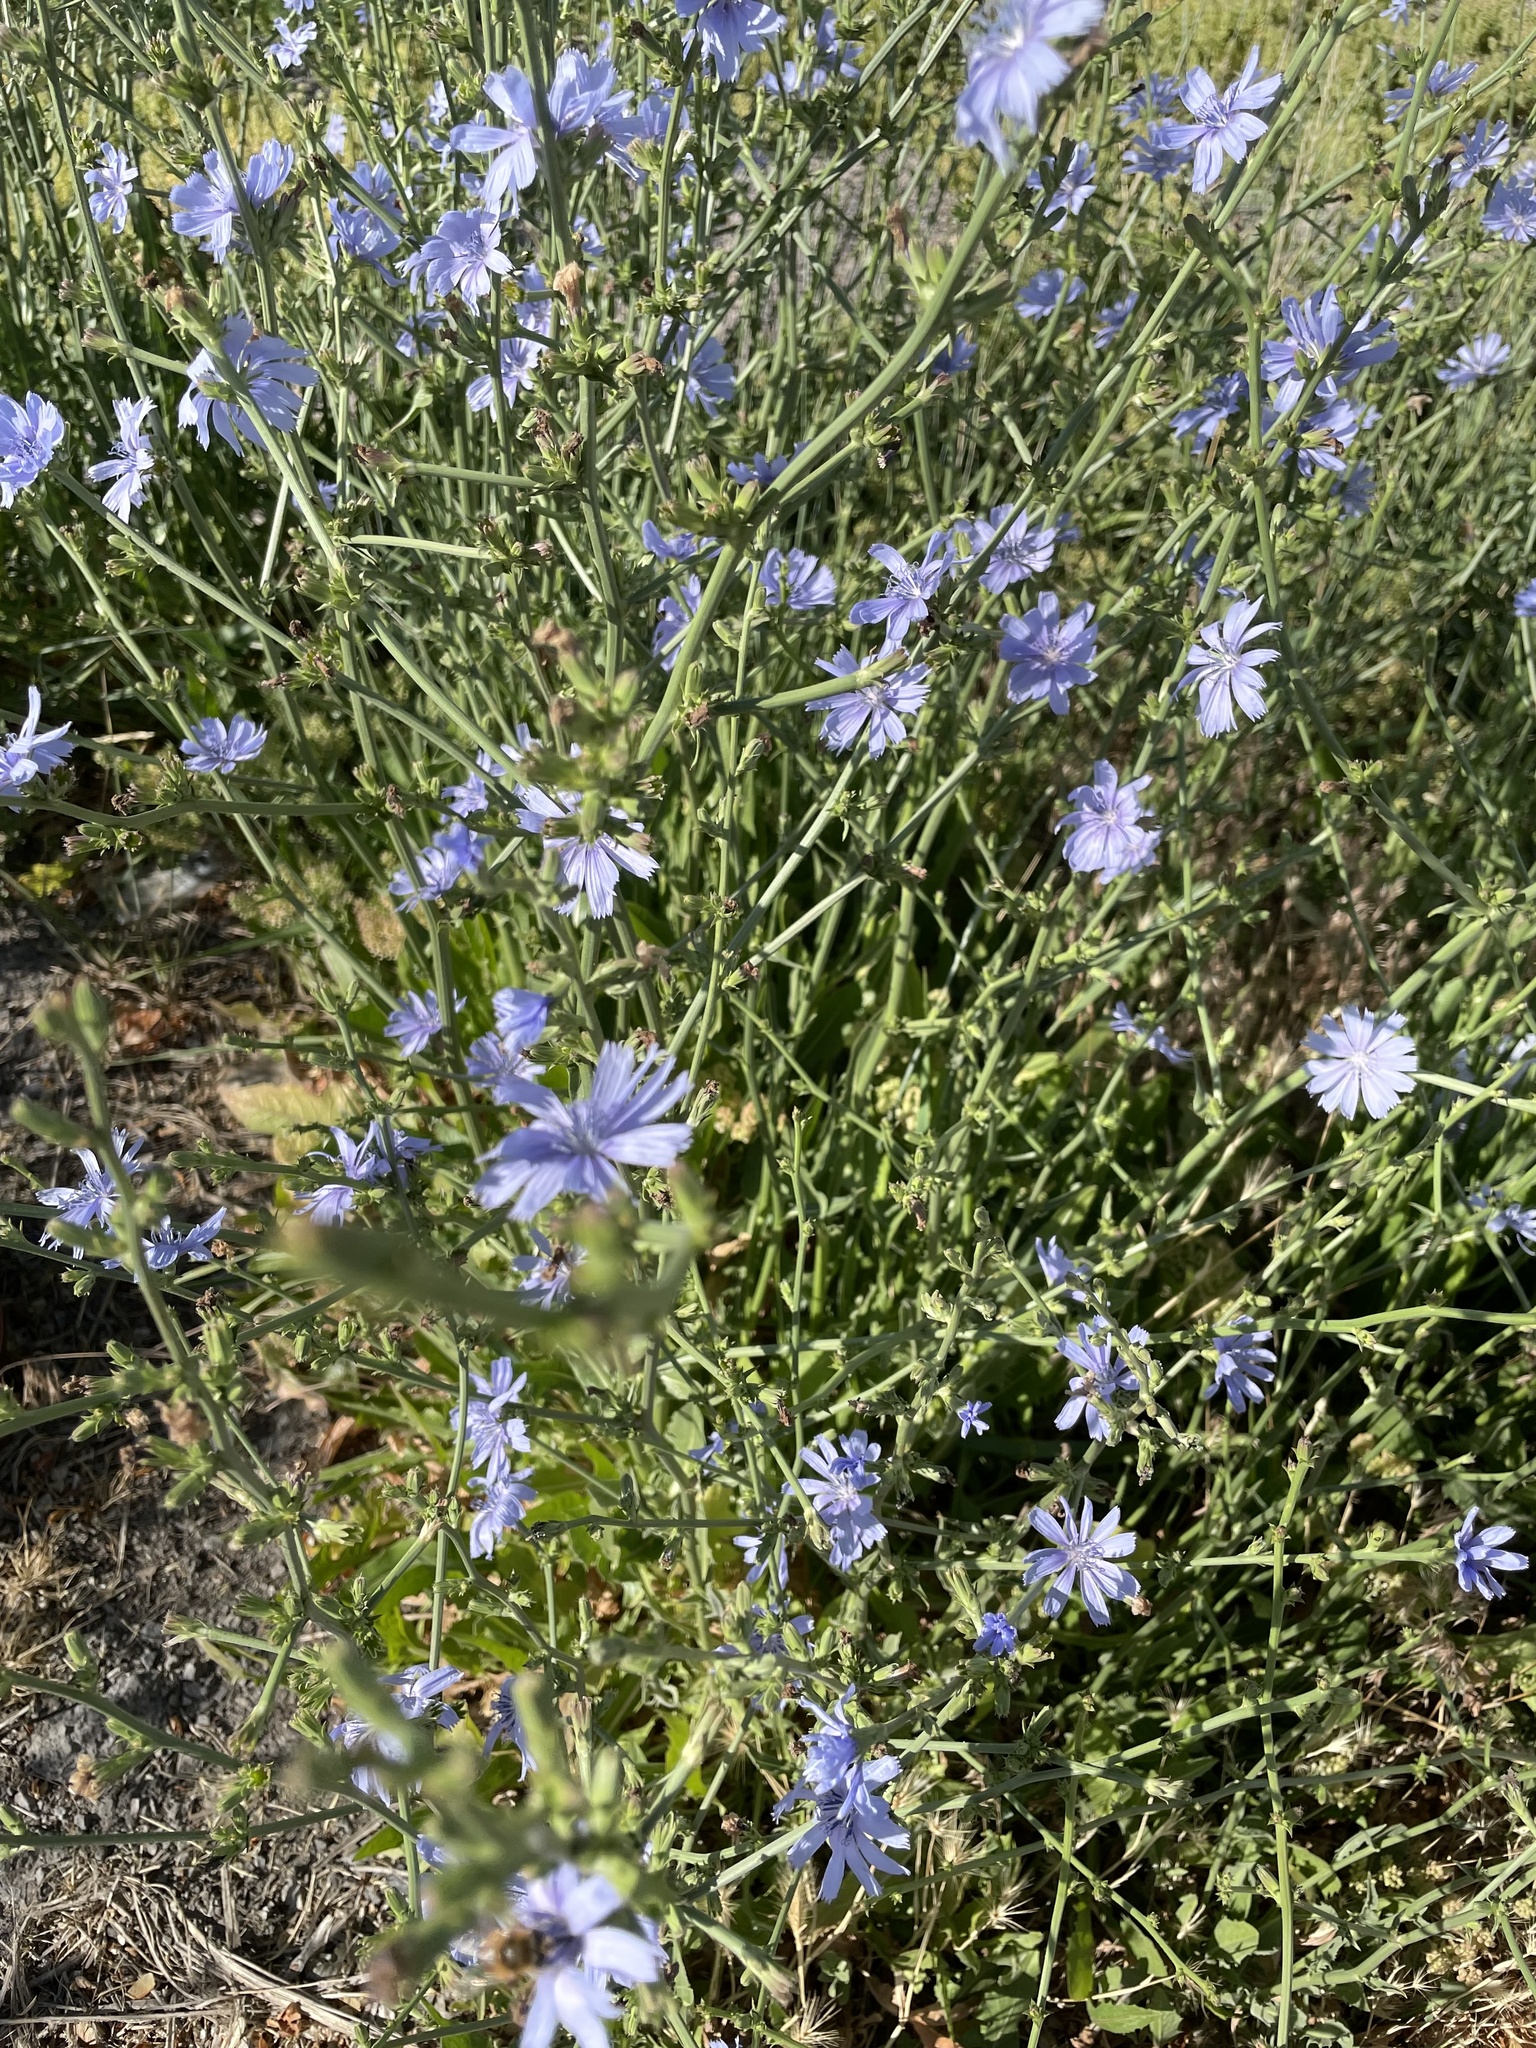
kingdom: Plantae
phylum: Tracheophyta
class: Magnoliopsida
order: Asterales
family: Asteraceae
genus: Cichorium
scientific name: Cichorium intybus
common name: Chicory
